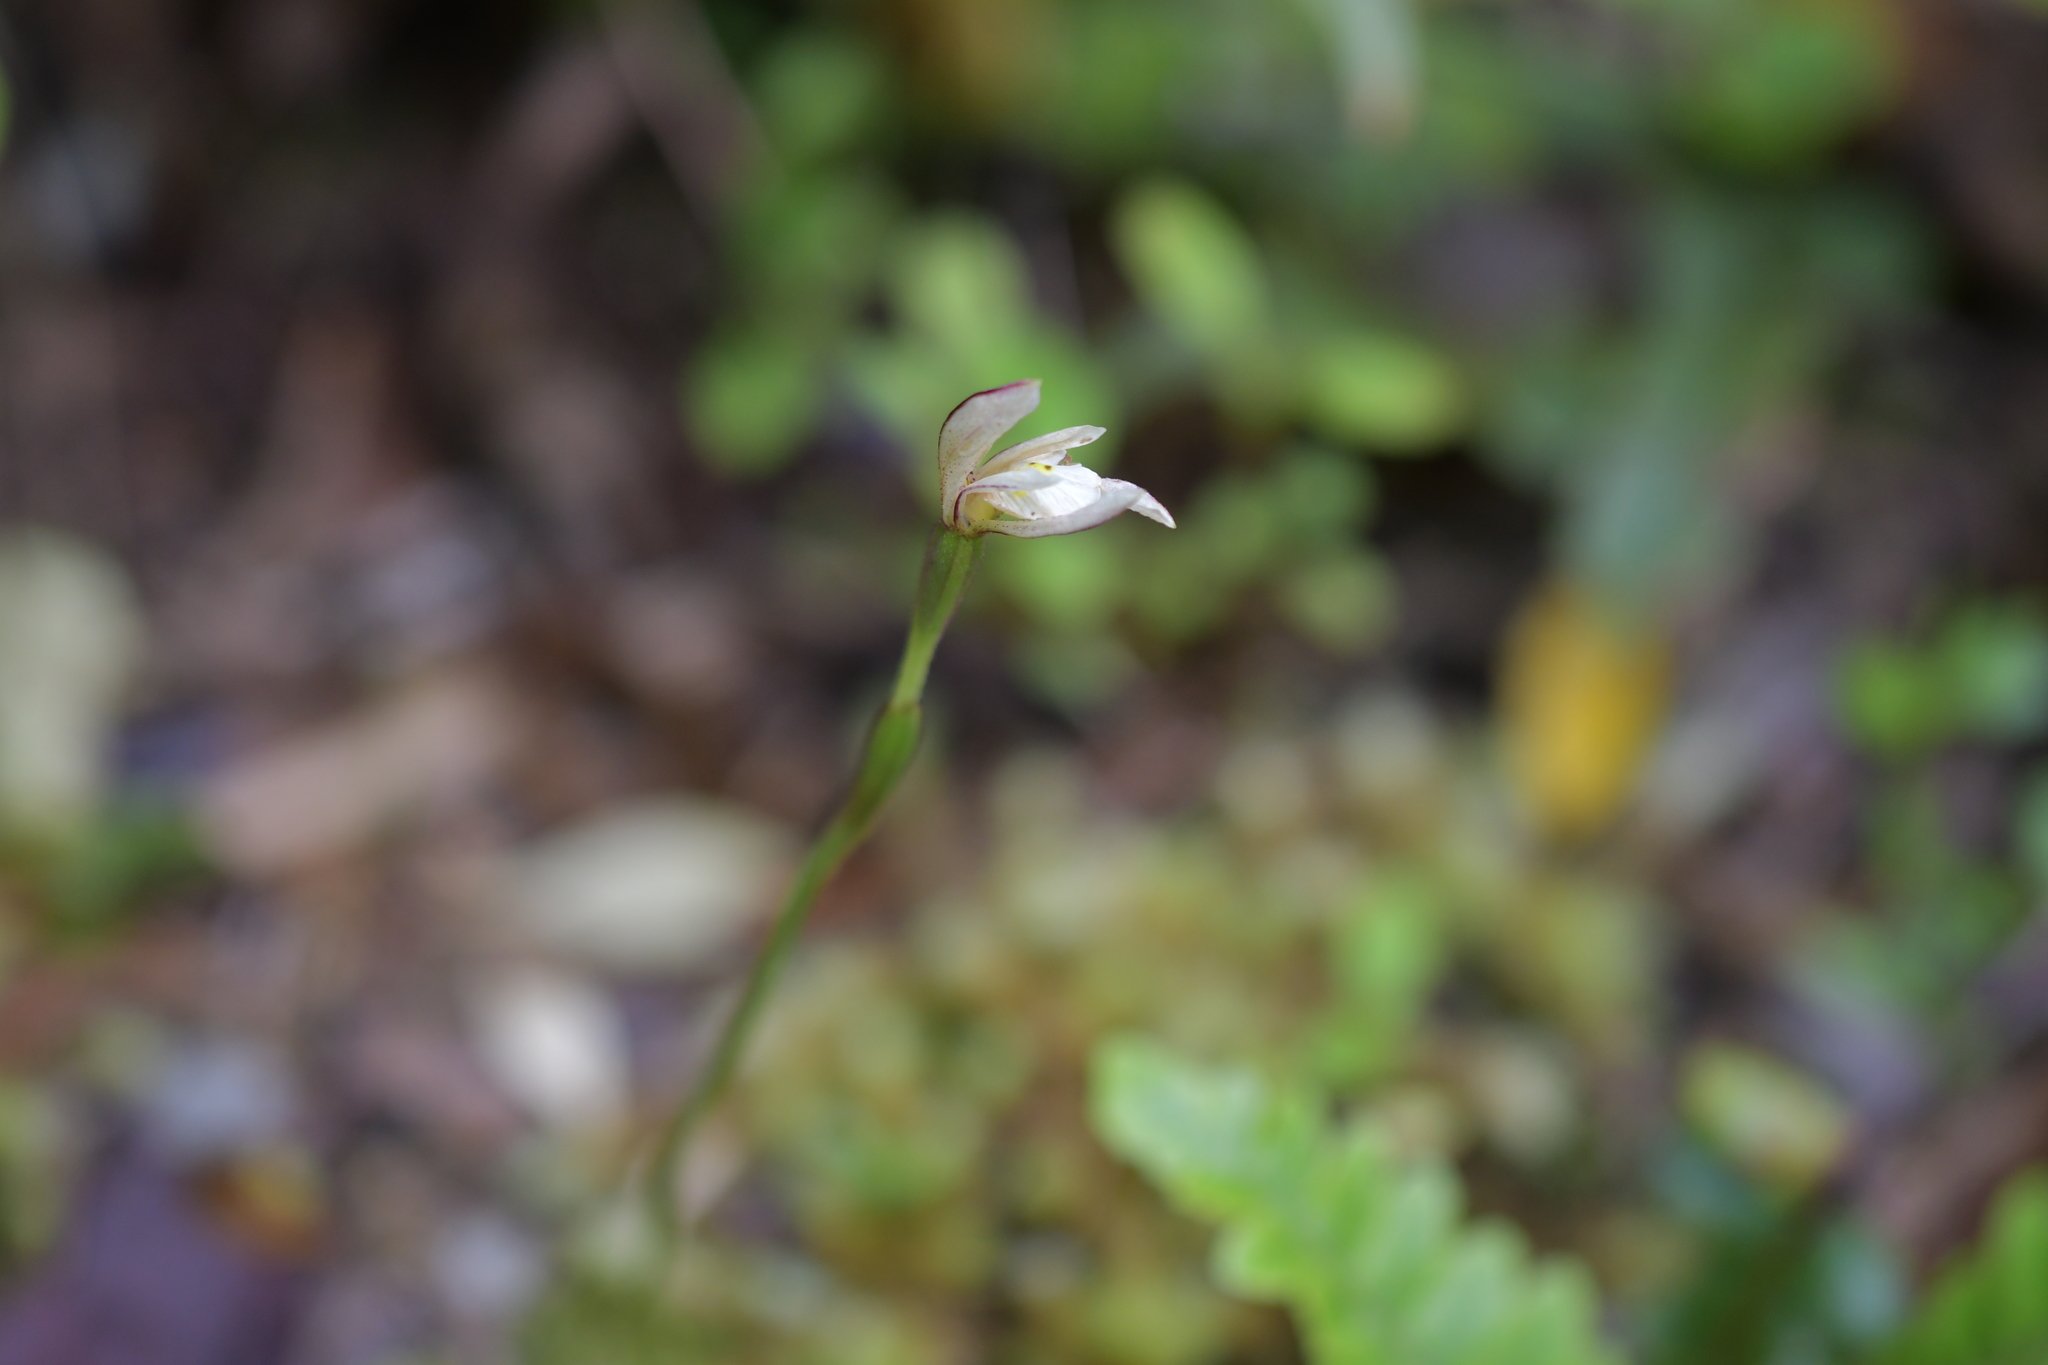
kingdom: Plantae
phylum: Tracheophyta
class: Liliopsida
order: Asparagales
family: Orchidaceae
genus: Aporostylis
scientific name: Aporostylis bifolia
